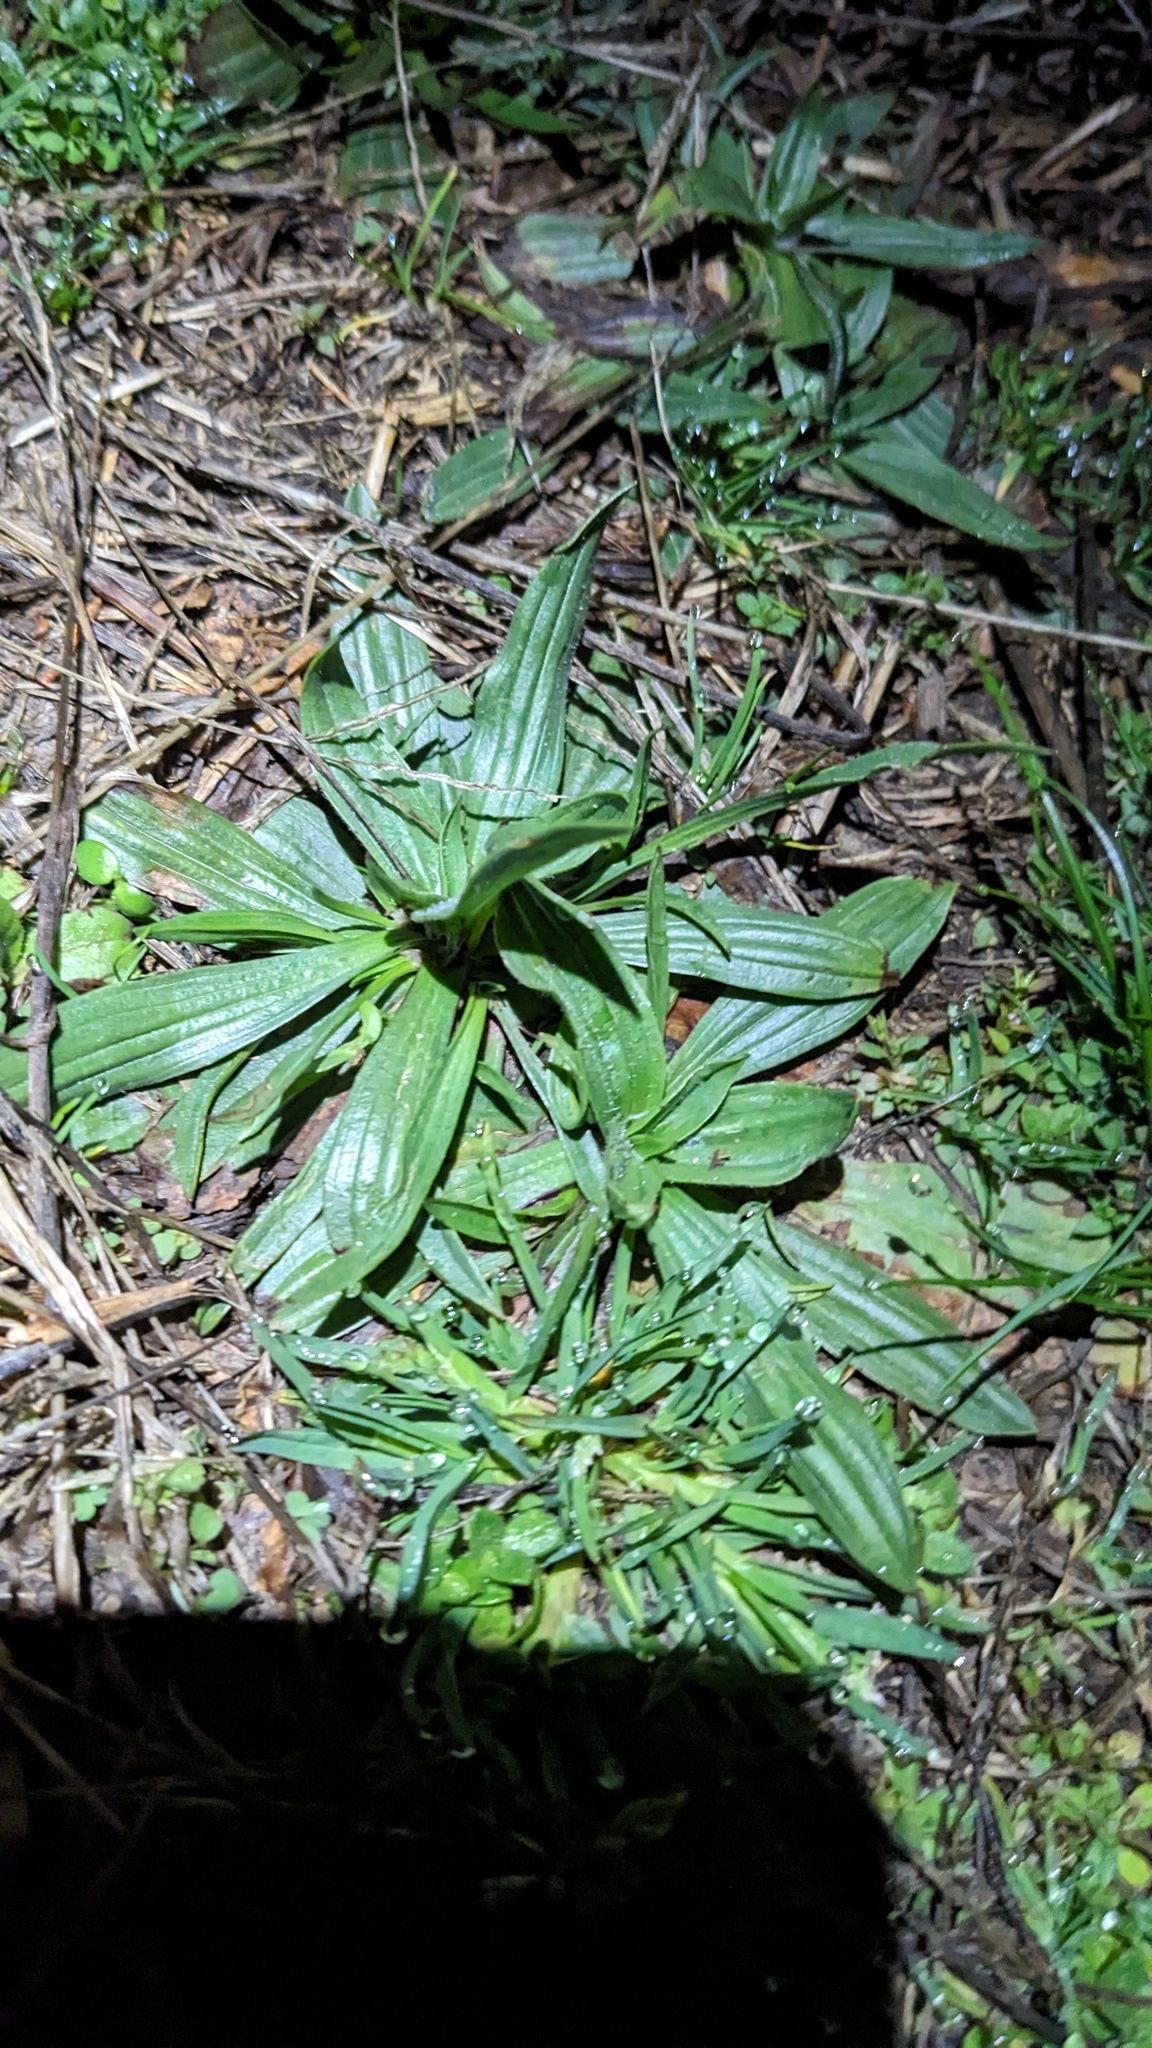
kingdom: Plantae
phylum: Tracheophyta
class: Magnoliopsida
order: Lamiales
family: Plantaginaceae
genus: Plantago
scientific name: Plantago lanceolata
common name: Ribwort plantain
